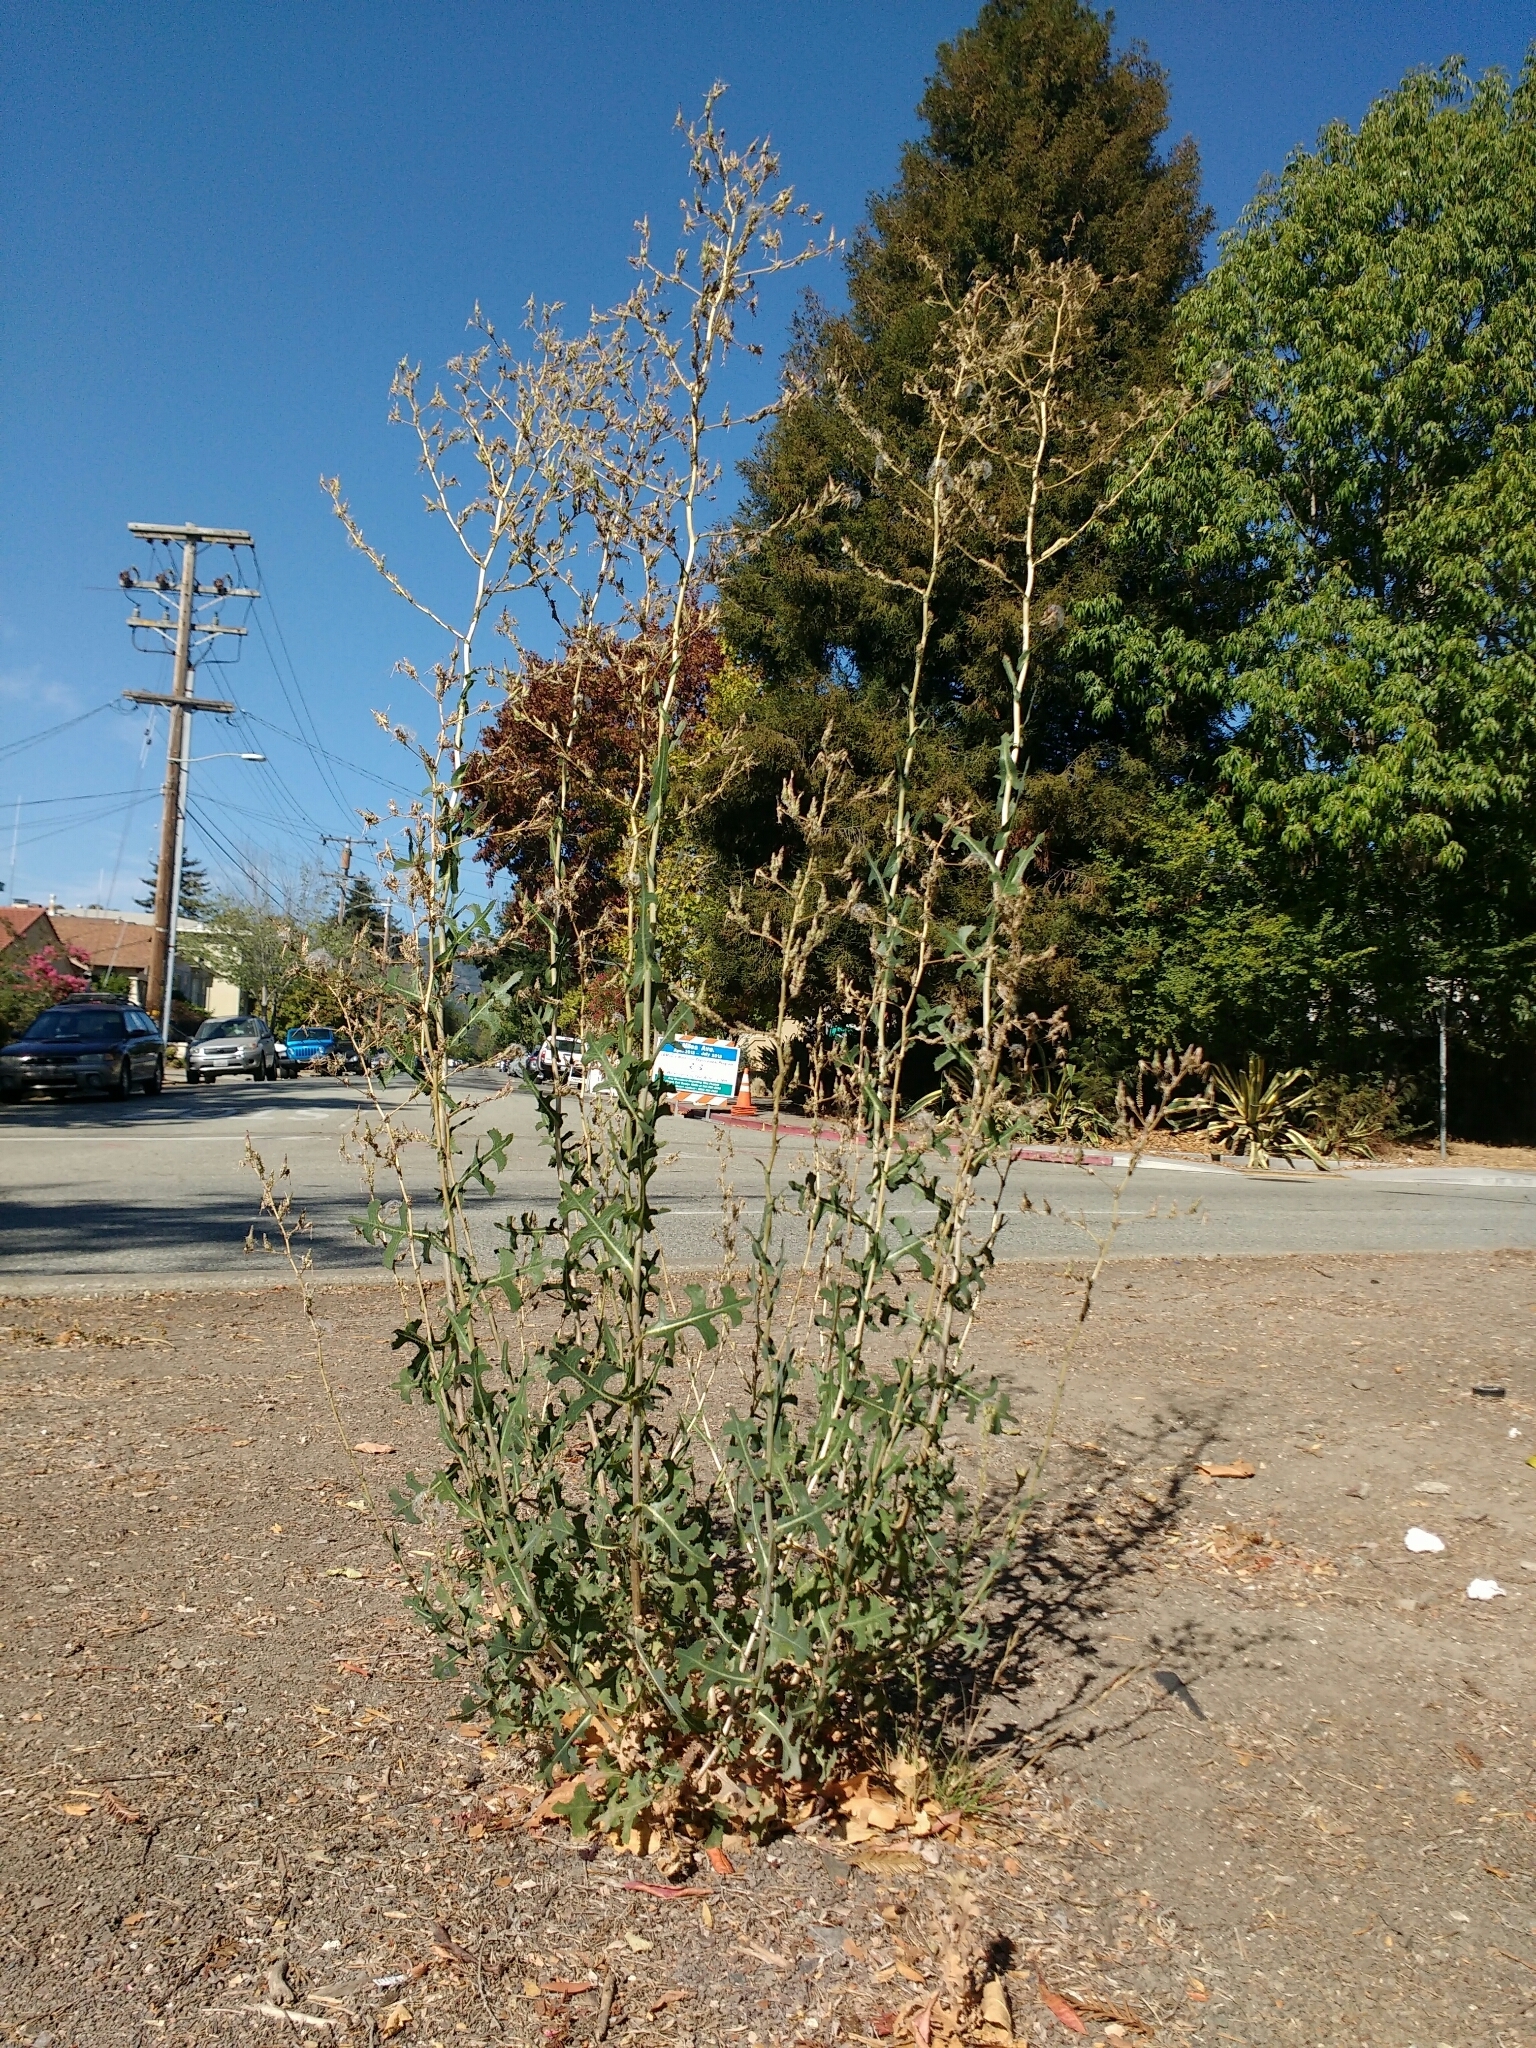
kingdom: Plantae
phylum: Tracheophyta
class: Magnoliopsida
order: Asterales
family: Asteraceae
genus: Lactuca
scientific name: Lactuca serriola
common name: Prickly lettuce
